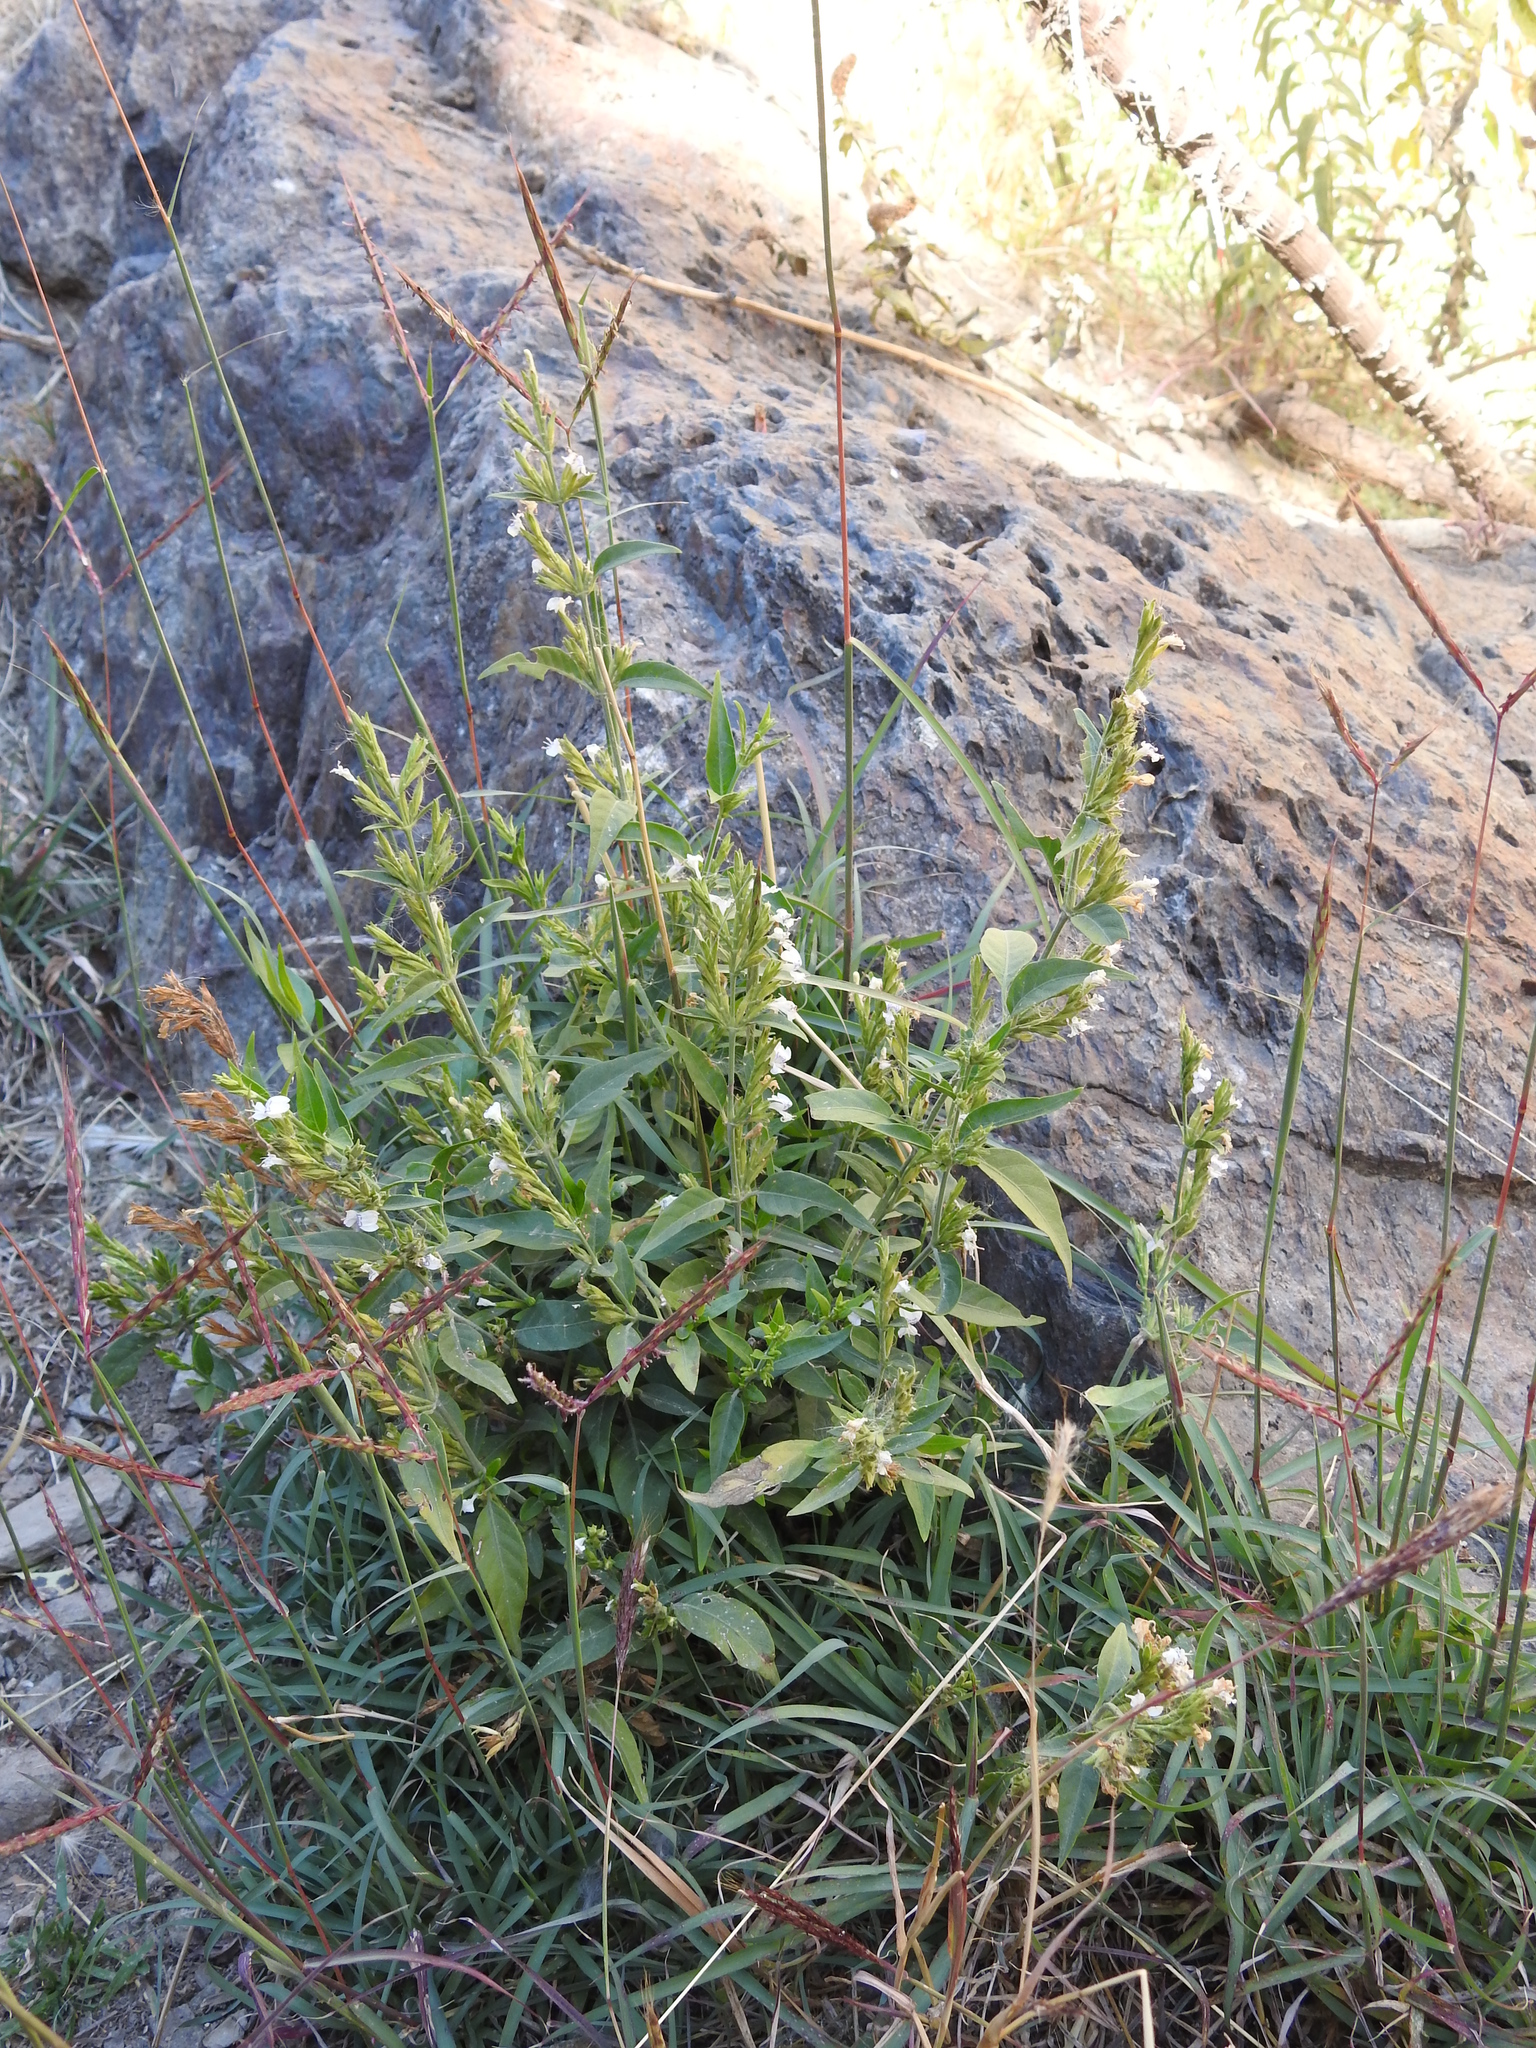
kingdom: Plantae
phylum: Tracheophyta
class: Magnoliopsida
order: Lamiales
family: Acanthaceae
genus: Hypoestes
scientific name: Hypoestes forskaolii
